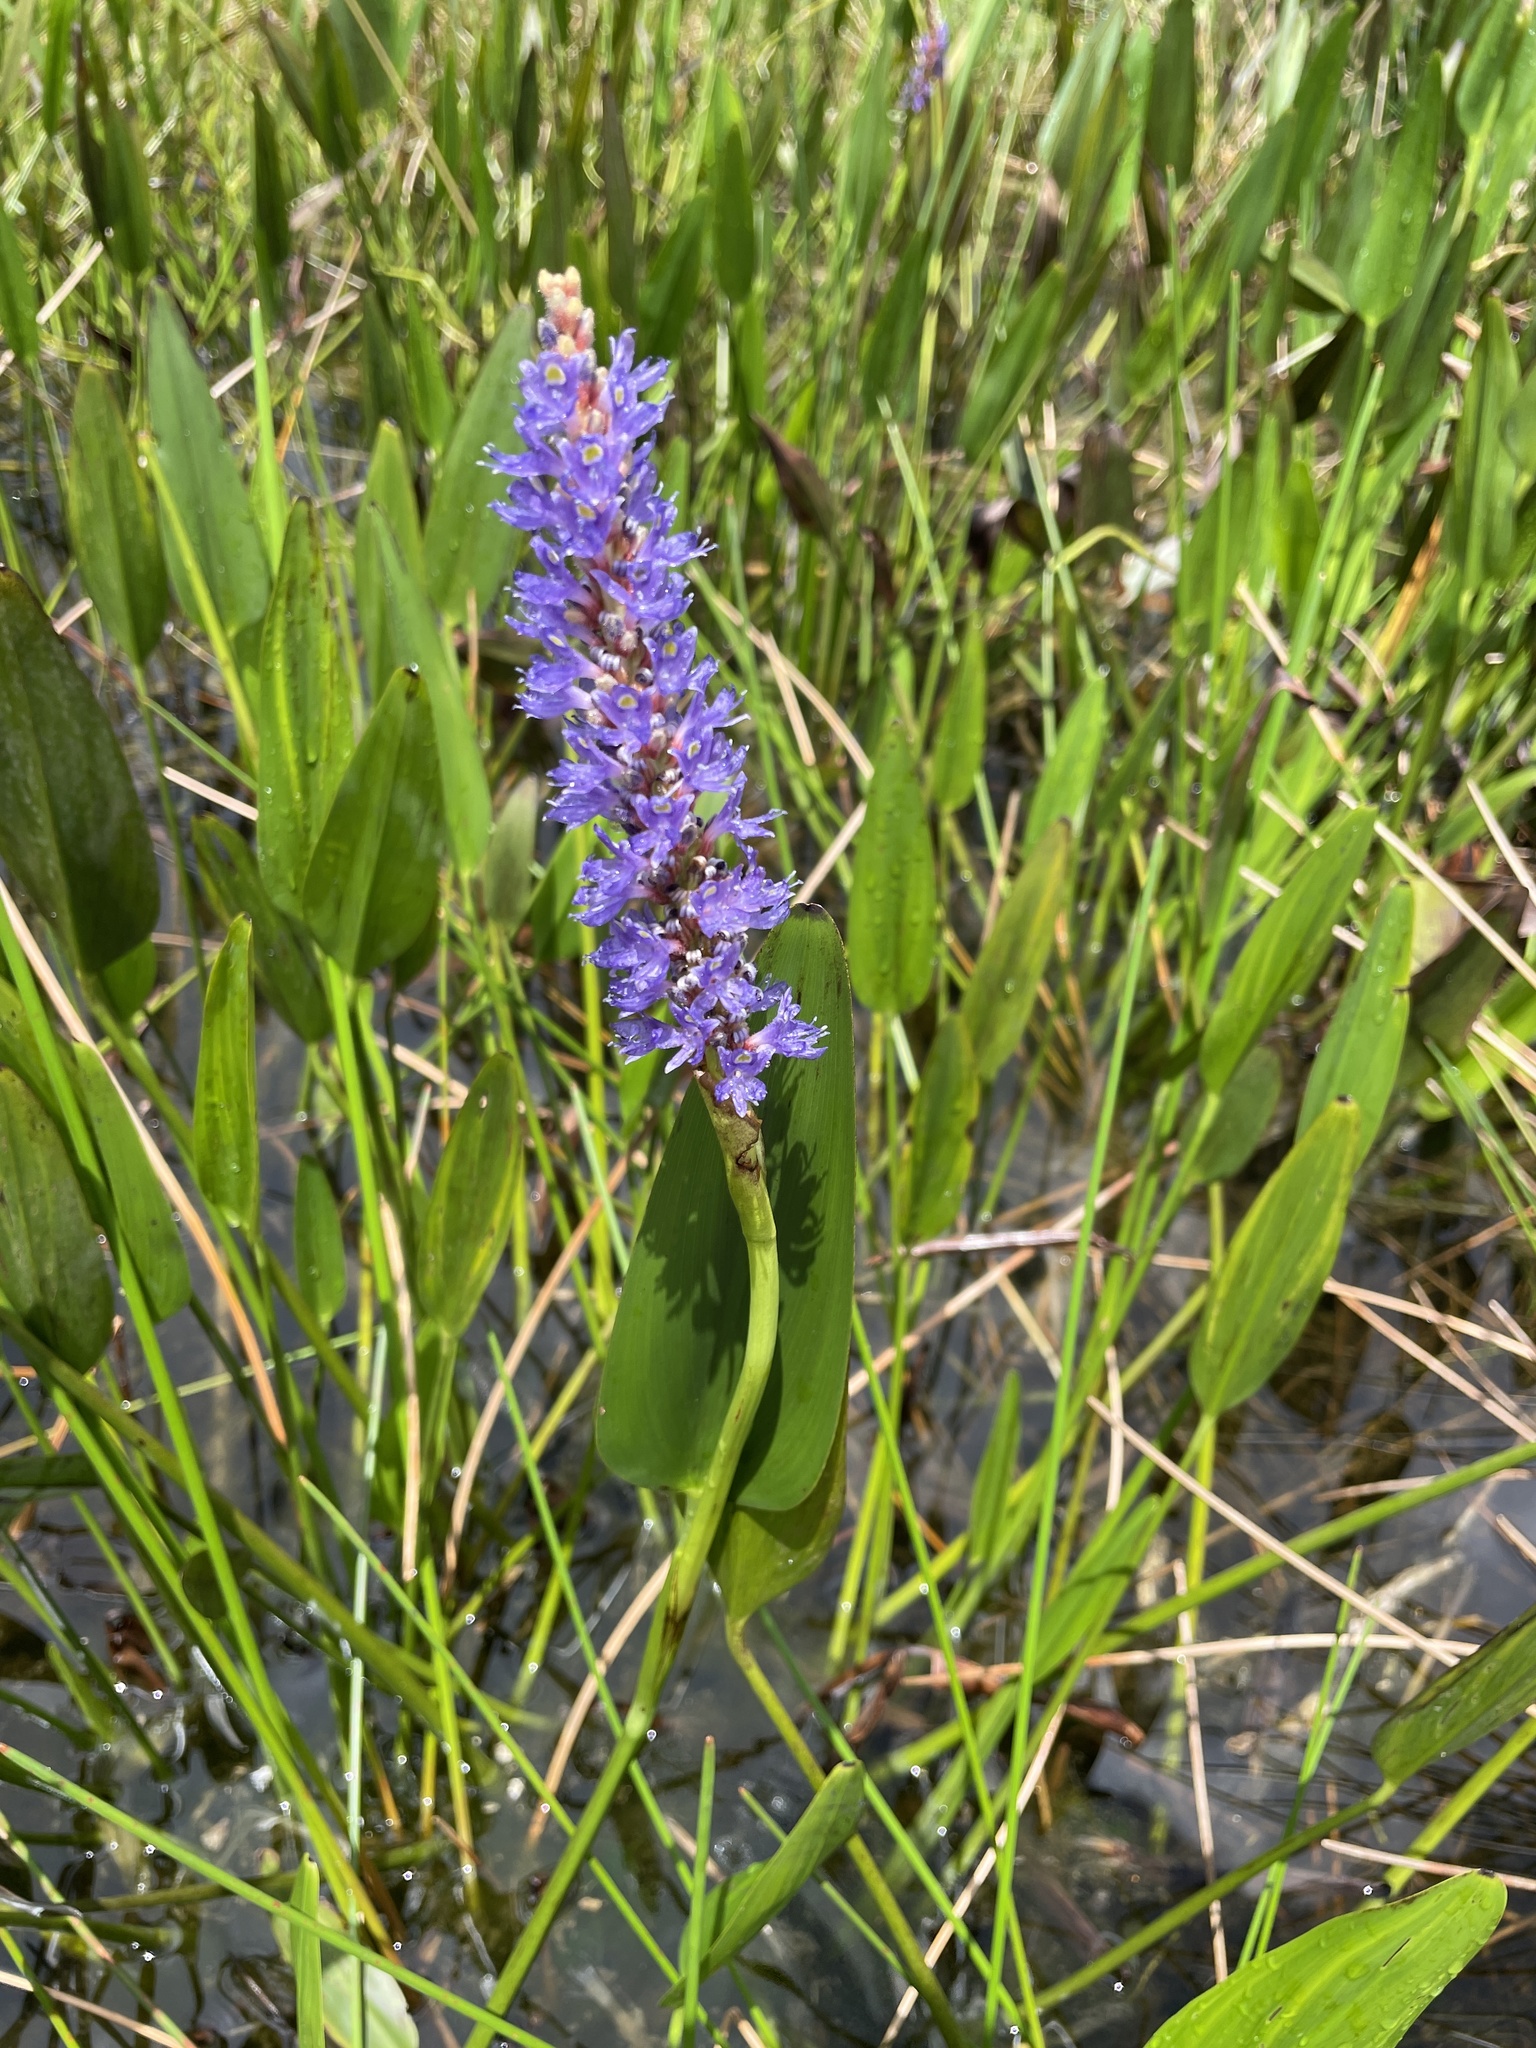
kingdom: Plantae
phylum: Tracheophyta
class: Liliopsida
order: Commelinales
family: Pontederiaceae
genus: Pontederia
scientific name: Pontederia cordata
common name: Pickerelweed
